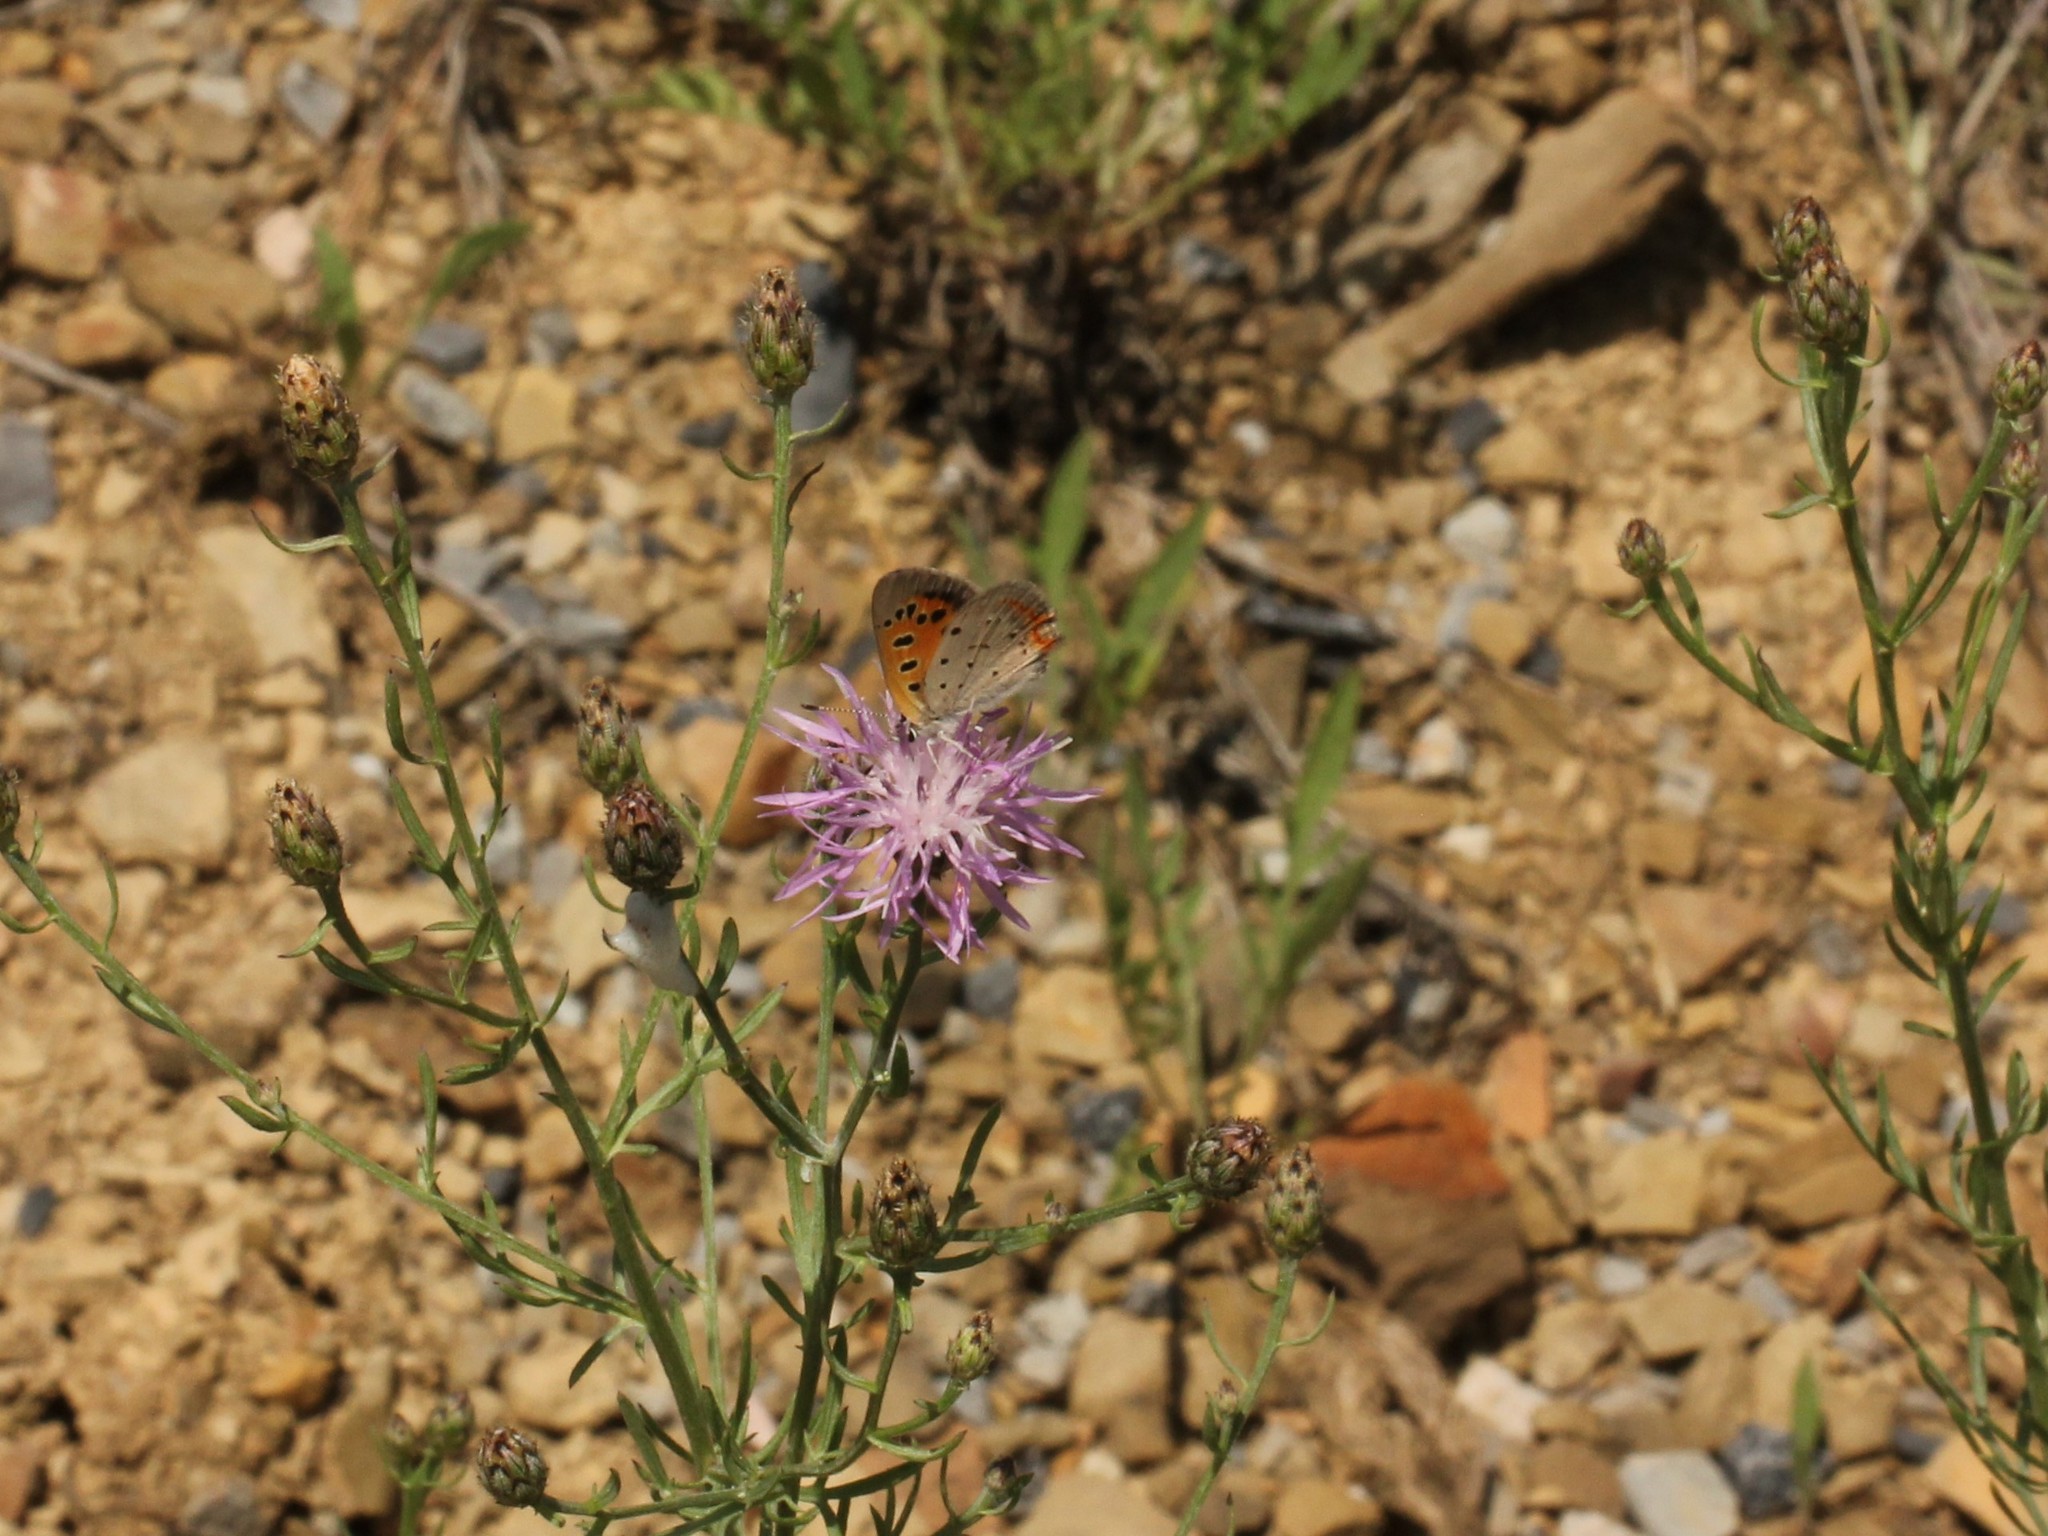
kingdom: Animalia
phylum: Arthropoda
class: Insecta
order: Lepidoptera
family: Lycaenidae
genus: Lycaena
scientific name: Lycaena hypophlaeas
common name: American copper
